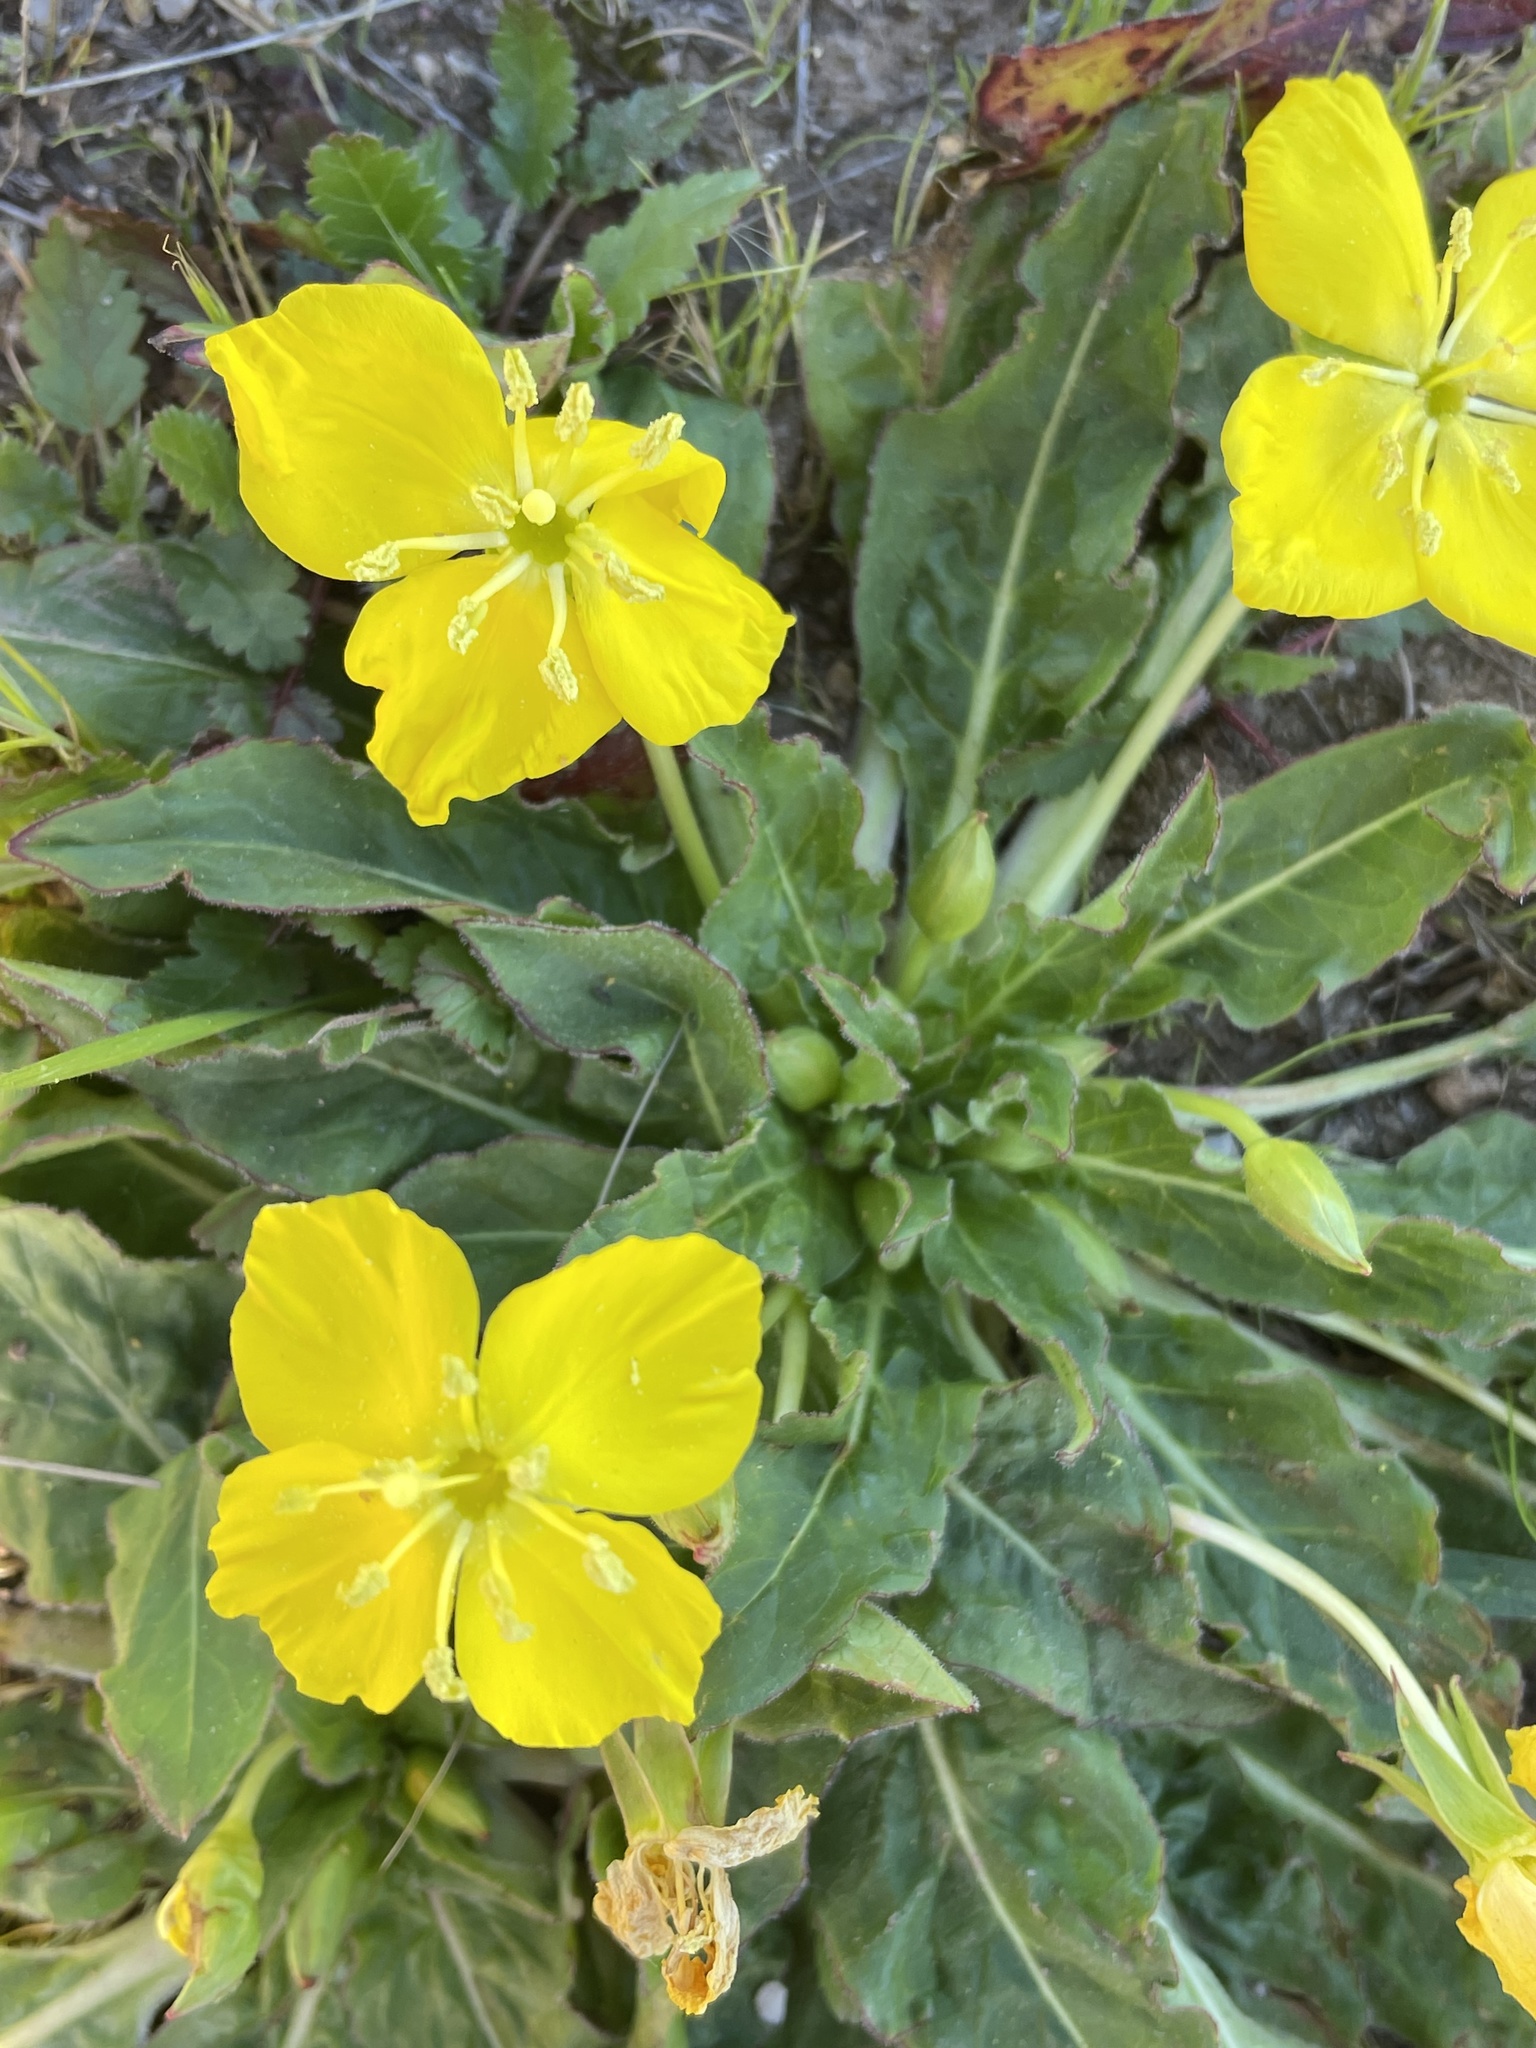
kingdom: Plantae
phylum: Tracheophyta
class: Magnoliopsida
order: Myrtales
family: Onagraceae
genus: Taraxia
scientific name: Taraxia ovata
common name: Goldeneggs
